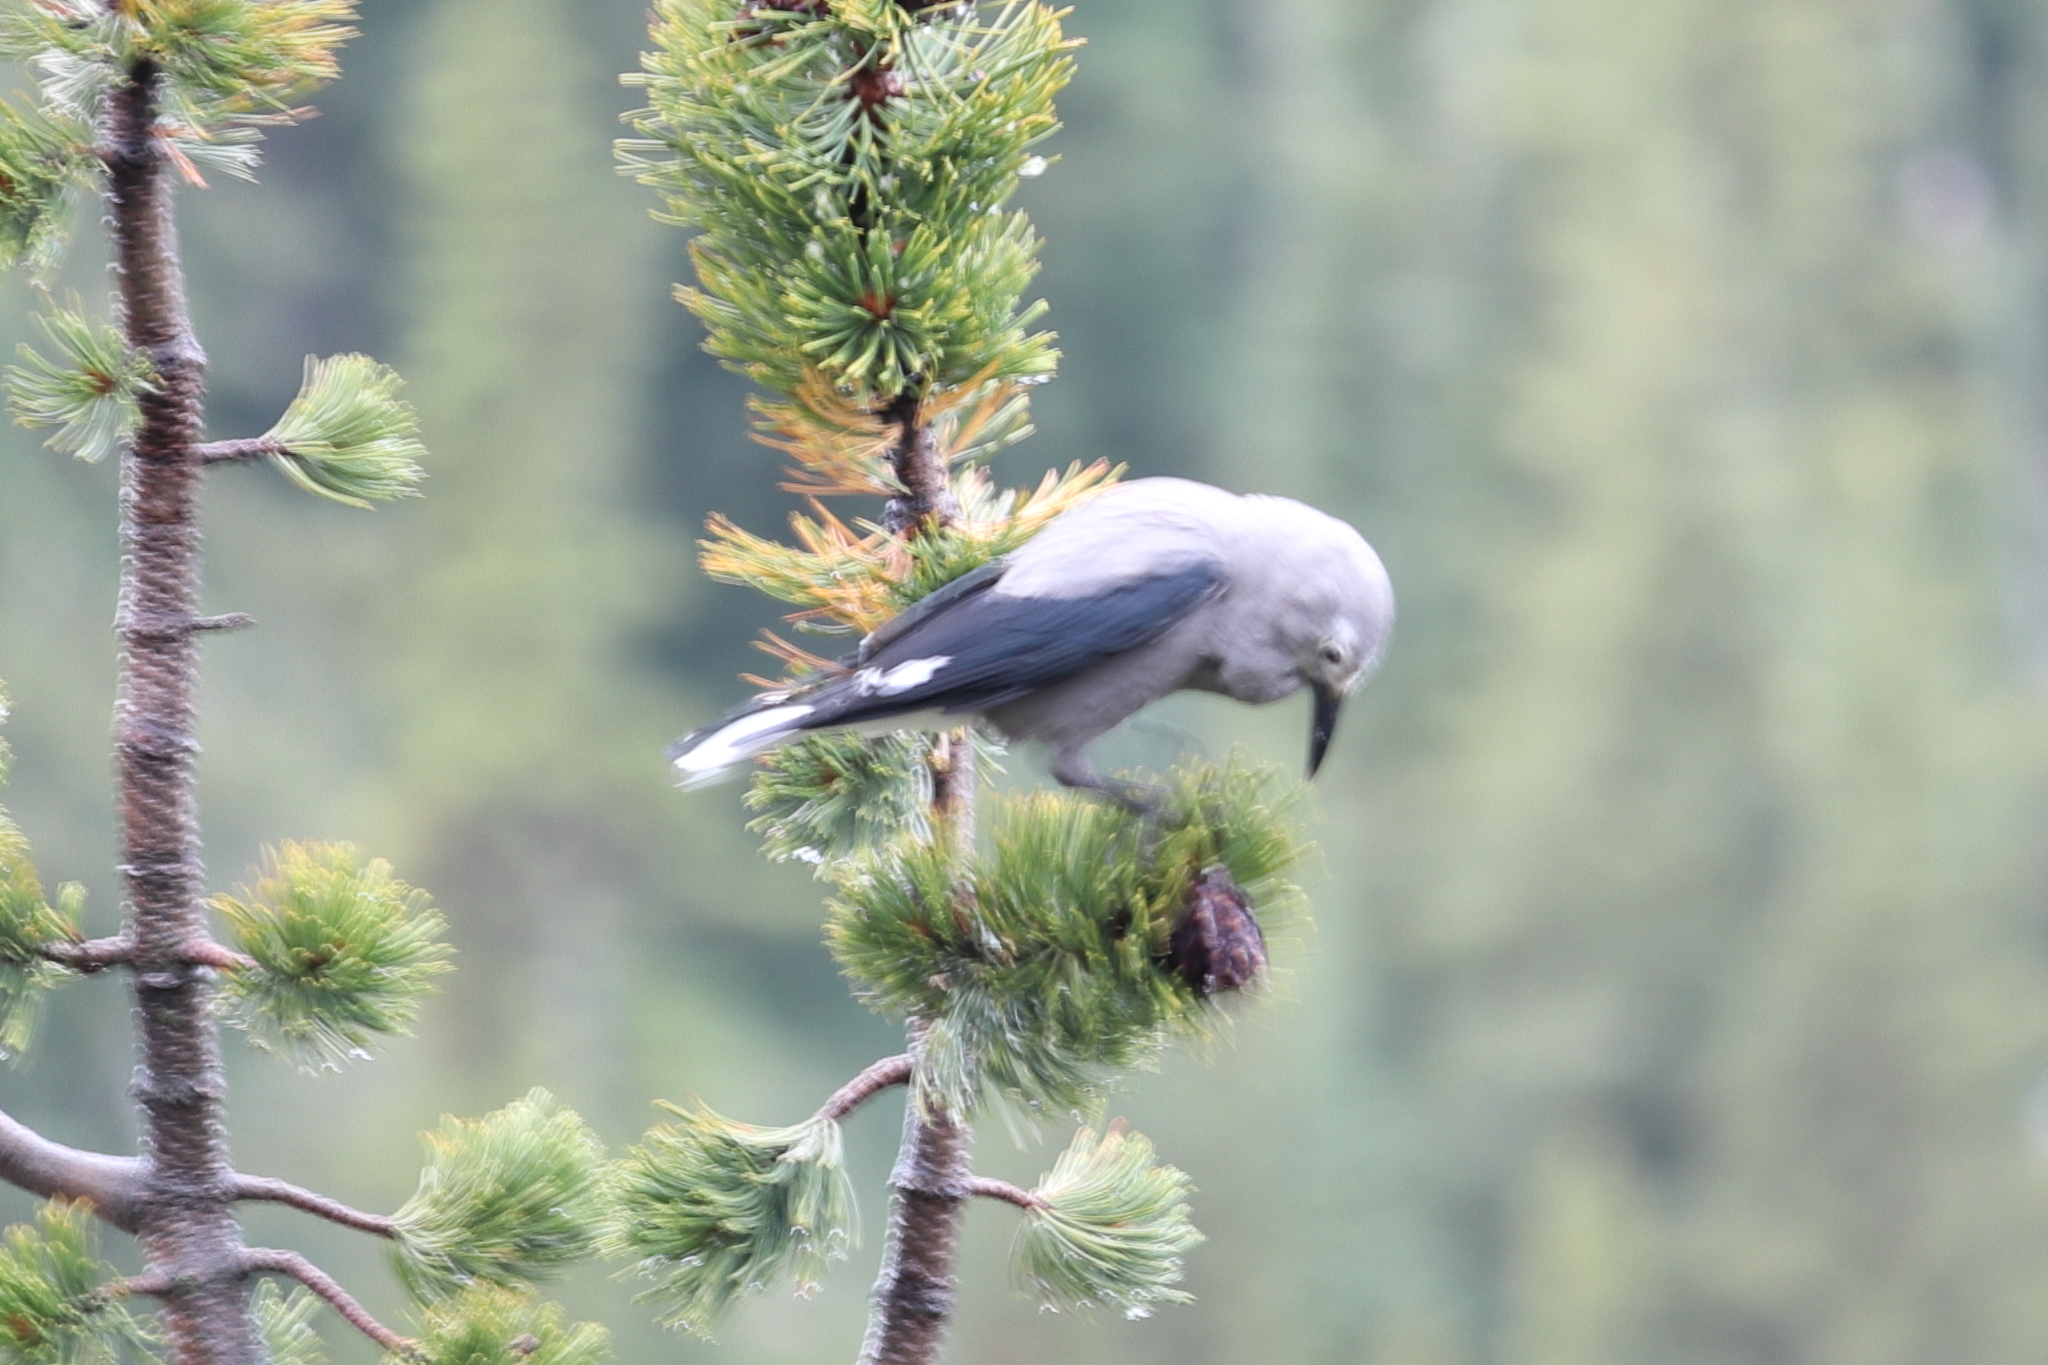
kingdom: Animalia
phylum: Chordata
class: Aves
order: Passeriformes
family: Corvidae
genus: Nucifraga
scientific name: Nucifraga columbiana
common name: Clark's nutcracker
